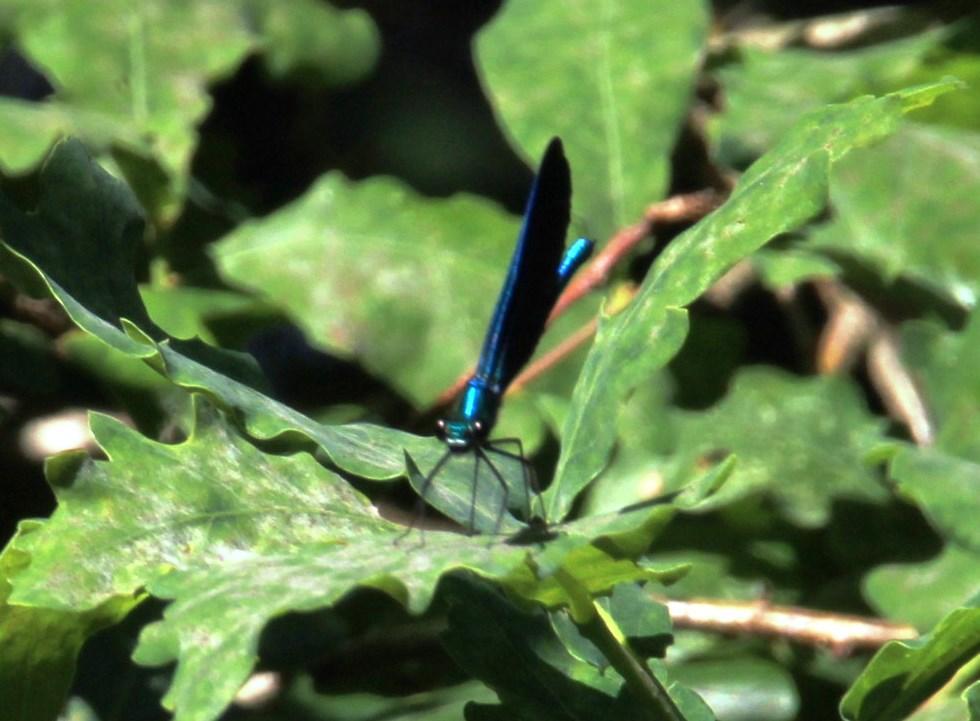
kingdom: Animalia
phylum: Arthropoda
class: Insecta
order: Odonata
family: Calopterygidae
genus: Calopteryx
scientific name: Calopteryx virgo
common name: Beautiful demoiselle
